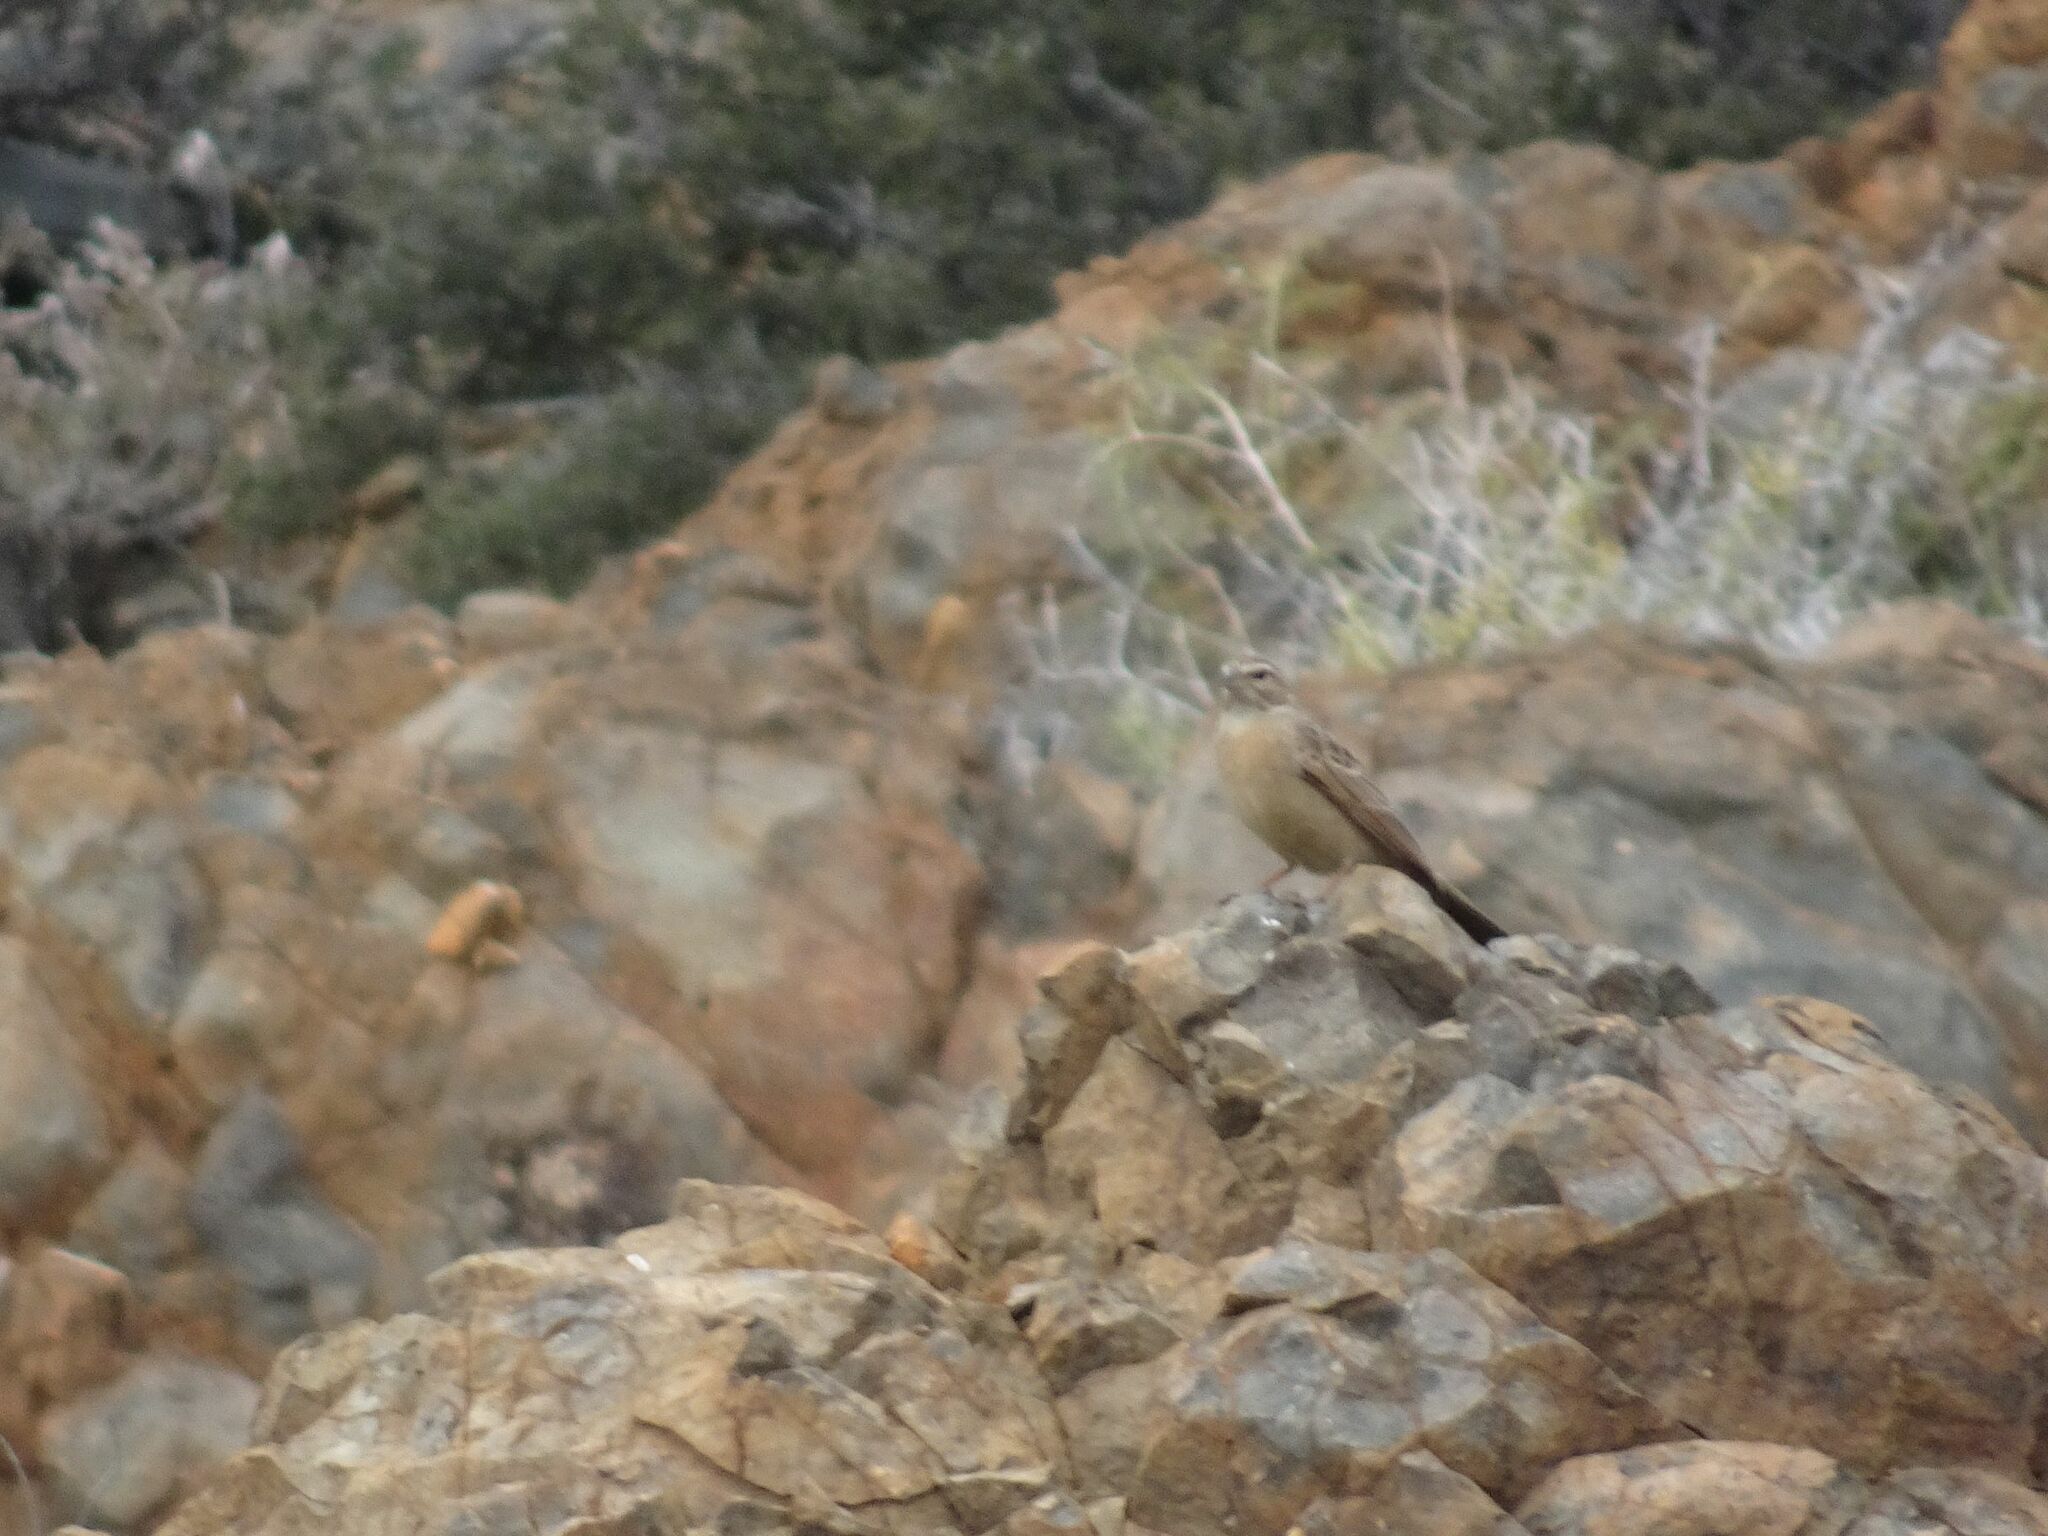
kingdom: Animalia
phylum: Chordata
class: Aves
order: Passeriformes
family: Emberizidae
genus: Emberiza
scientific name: Emberiza impetuani
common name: Lark-like bunting
